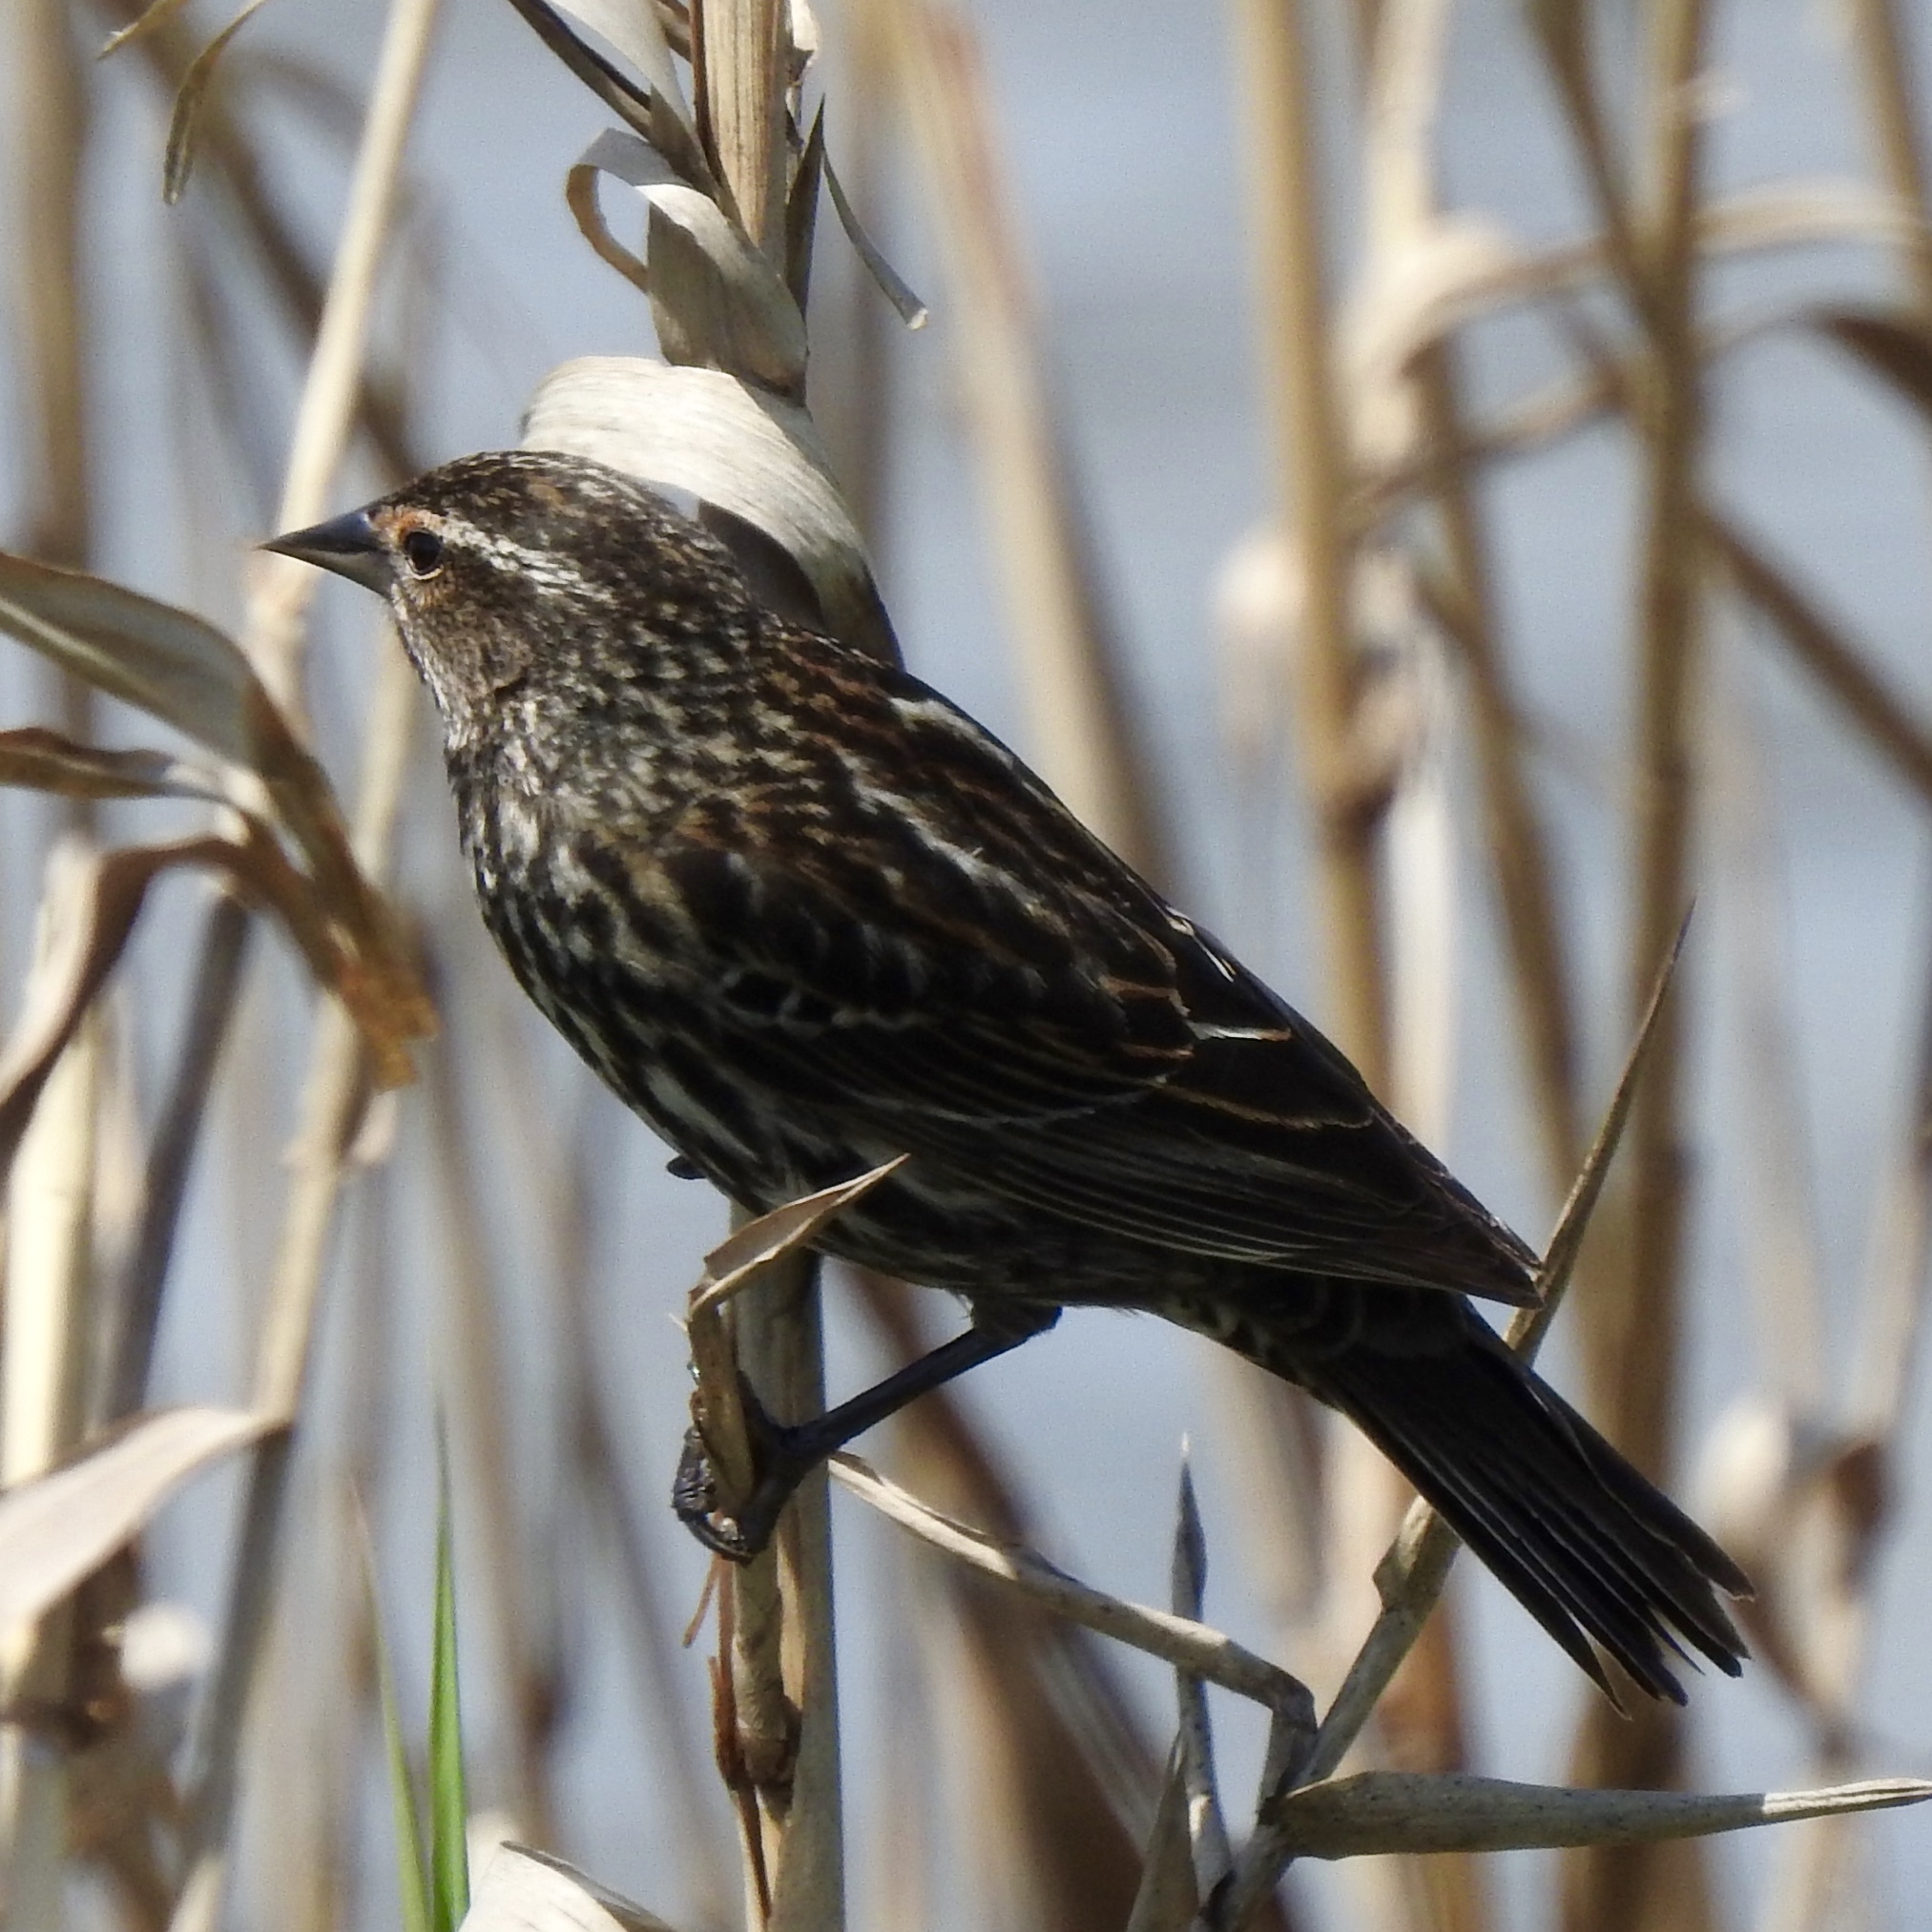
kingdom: Animalia
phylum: Chordata
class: Aves
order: Passeriformes
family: Icteridae
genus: Agelaius
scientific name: Agelaius phoeniceus
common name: Red-winged blackbird
